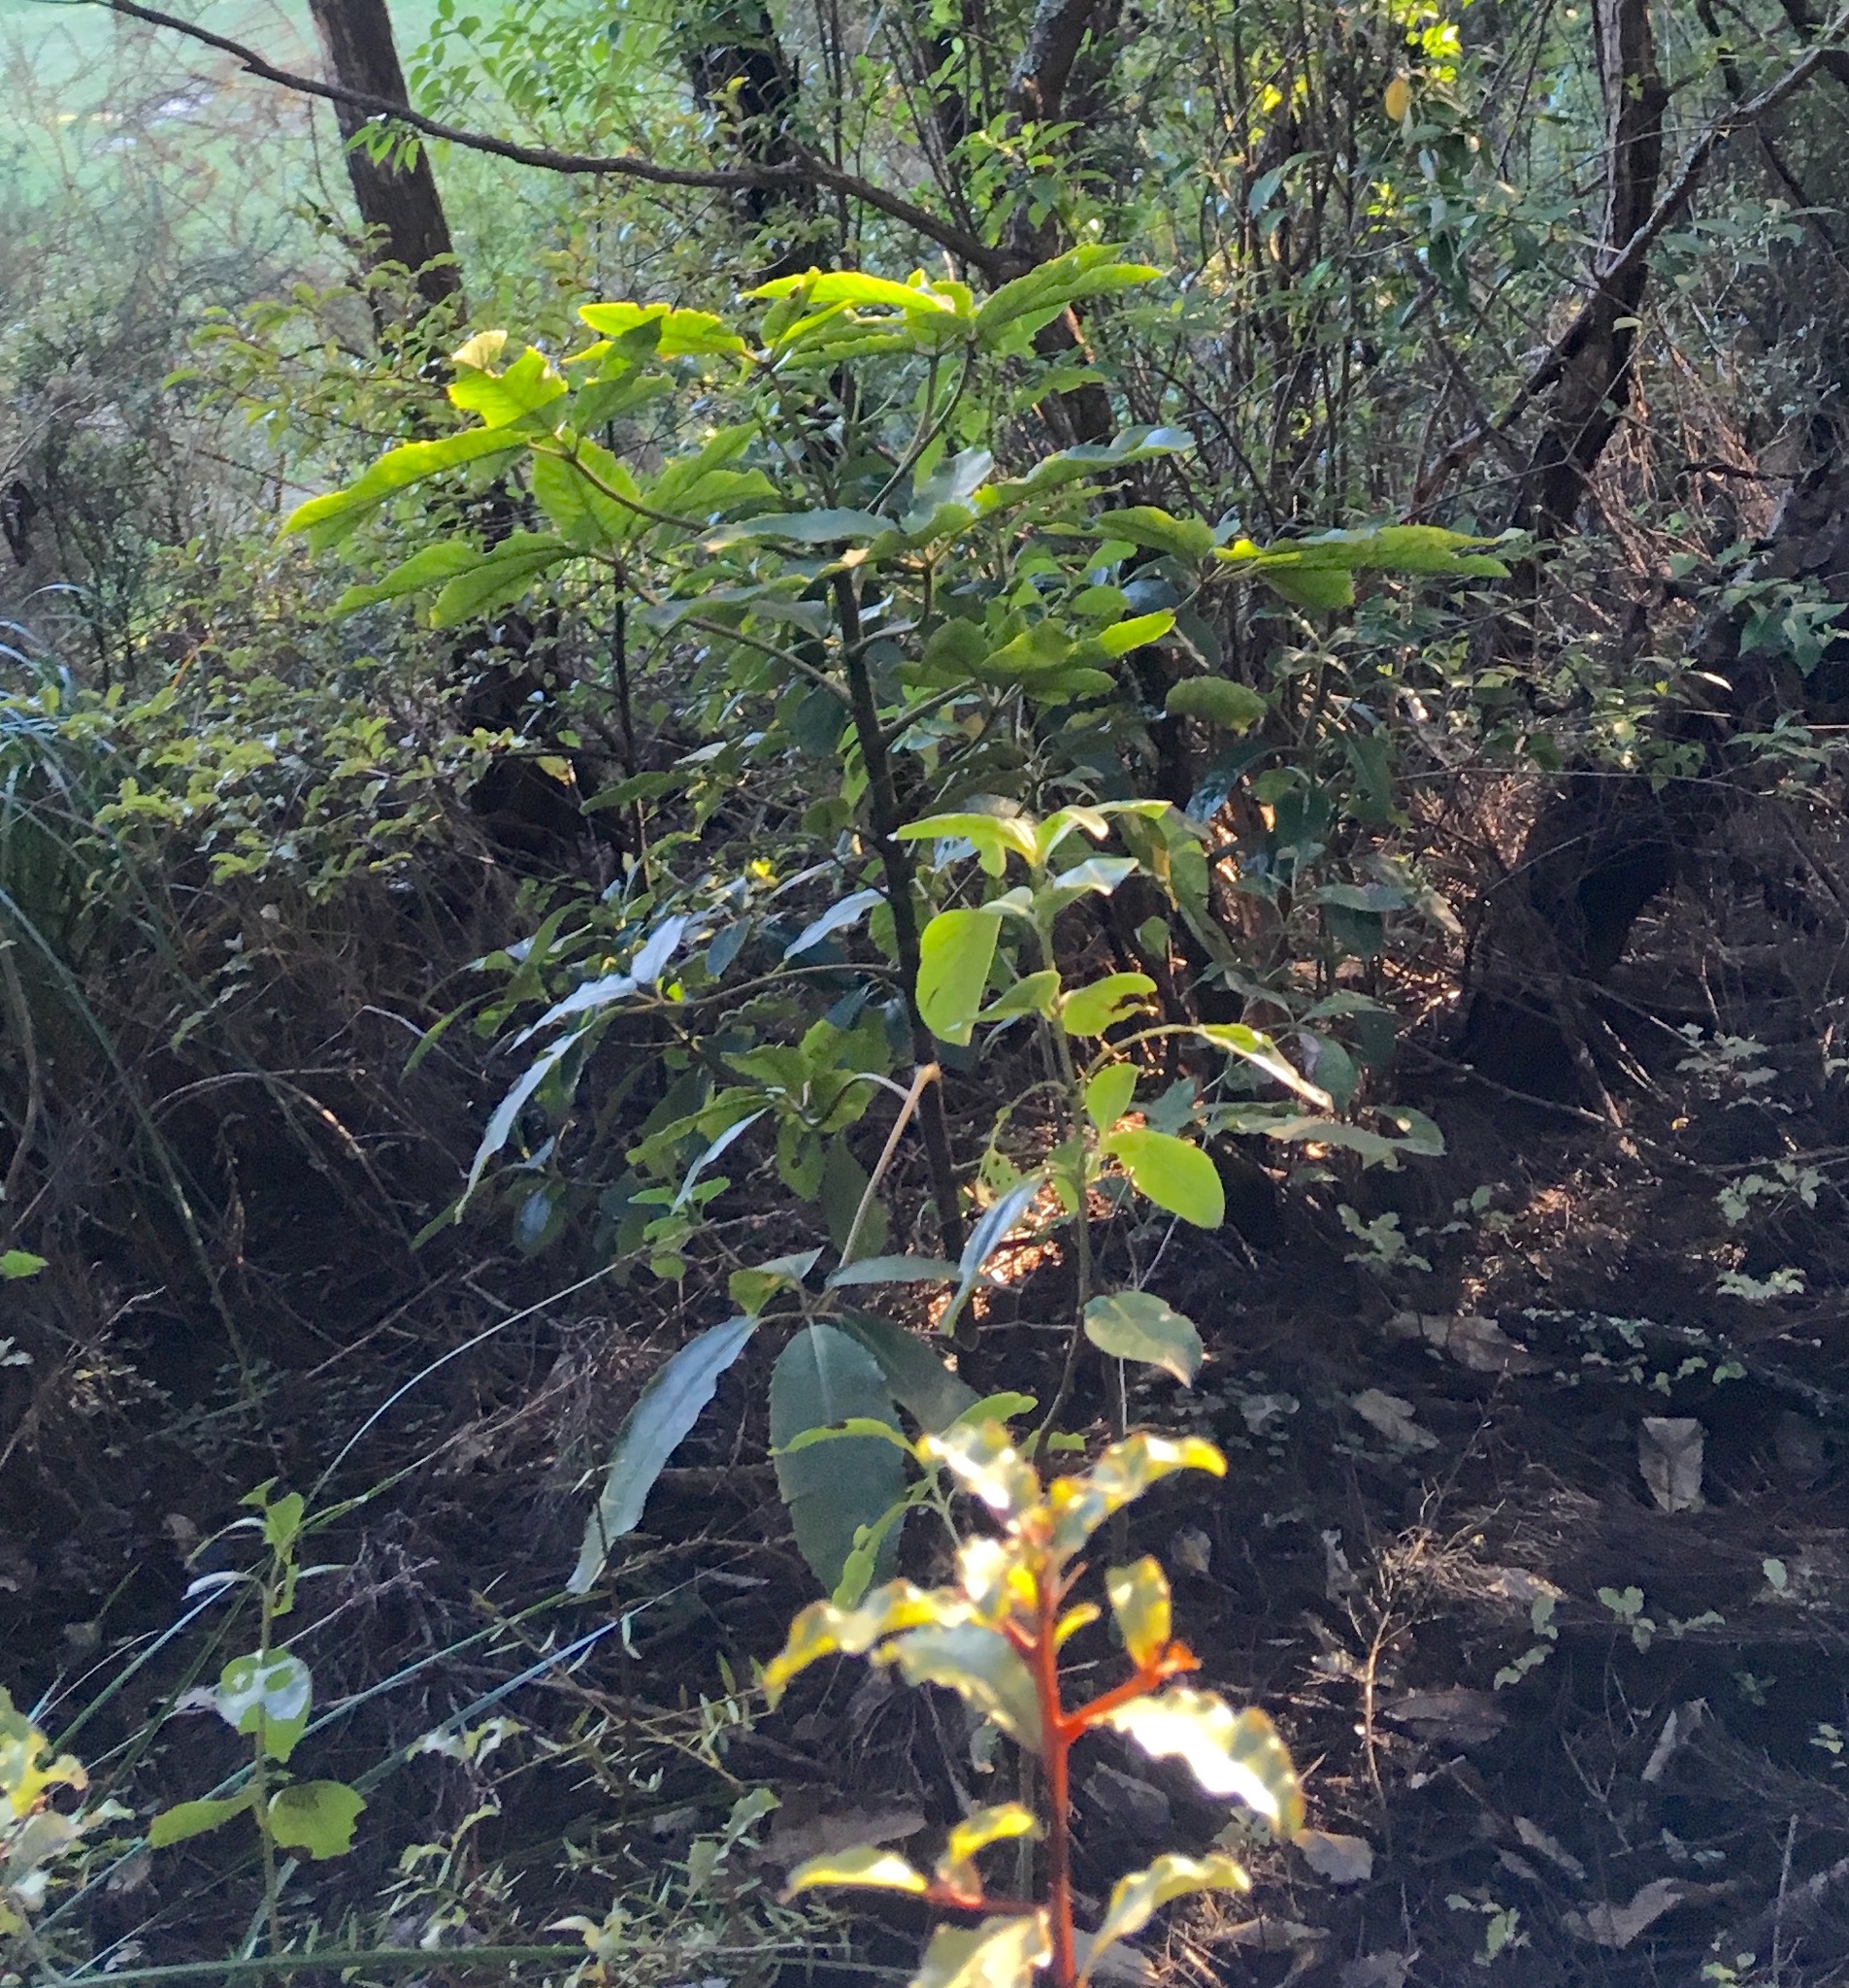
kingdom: Plantae
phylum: Tracheophyta
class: Magnoliopsida
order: Apiales
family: Araliaceae
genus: Neopanax
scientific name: Neopanax arboreus
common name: Five-fingers
